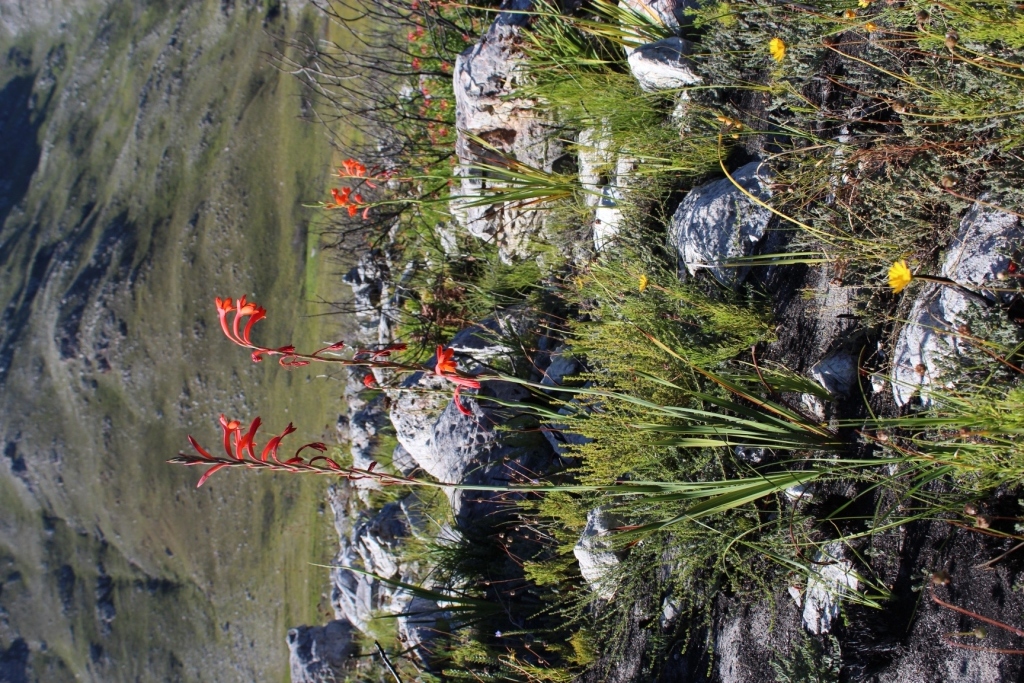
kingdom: Plantae
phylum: Tracheophyta
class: Liliopsida
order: Asparagales
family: Iridaceae
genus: Watsonia
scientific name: Watsonia schlechteri
